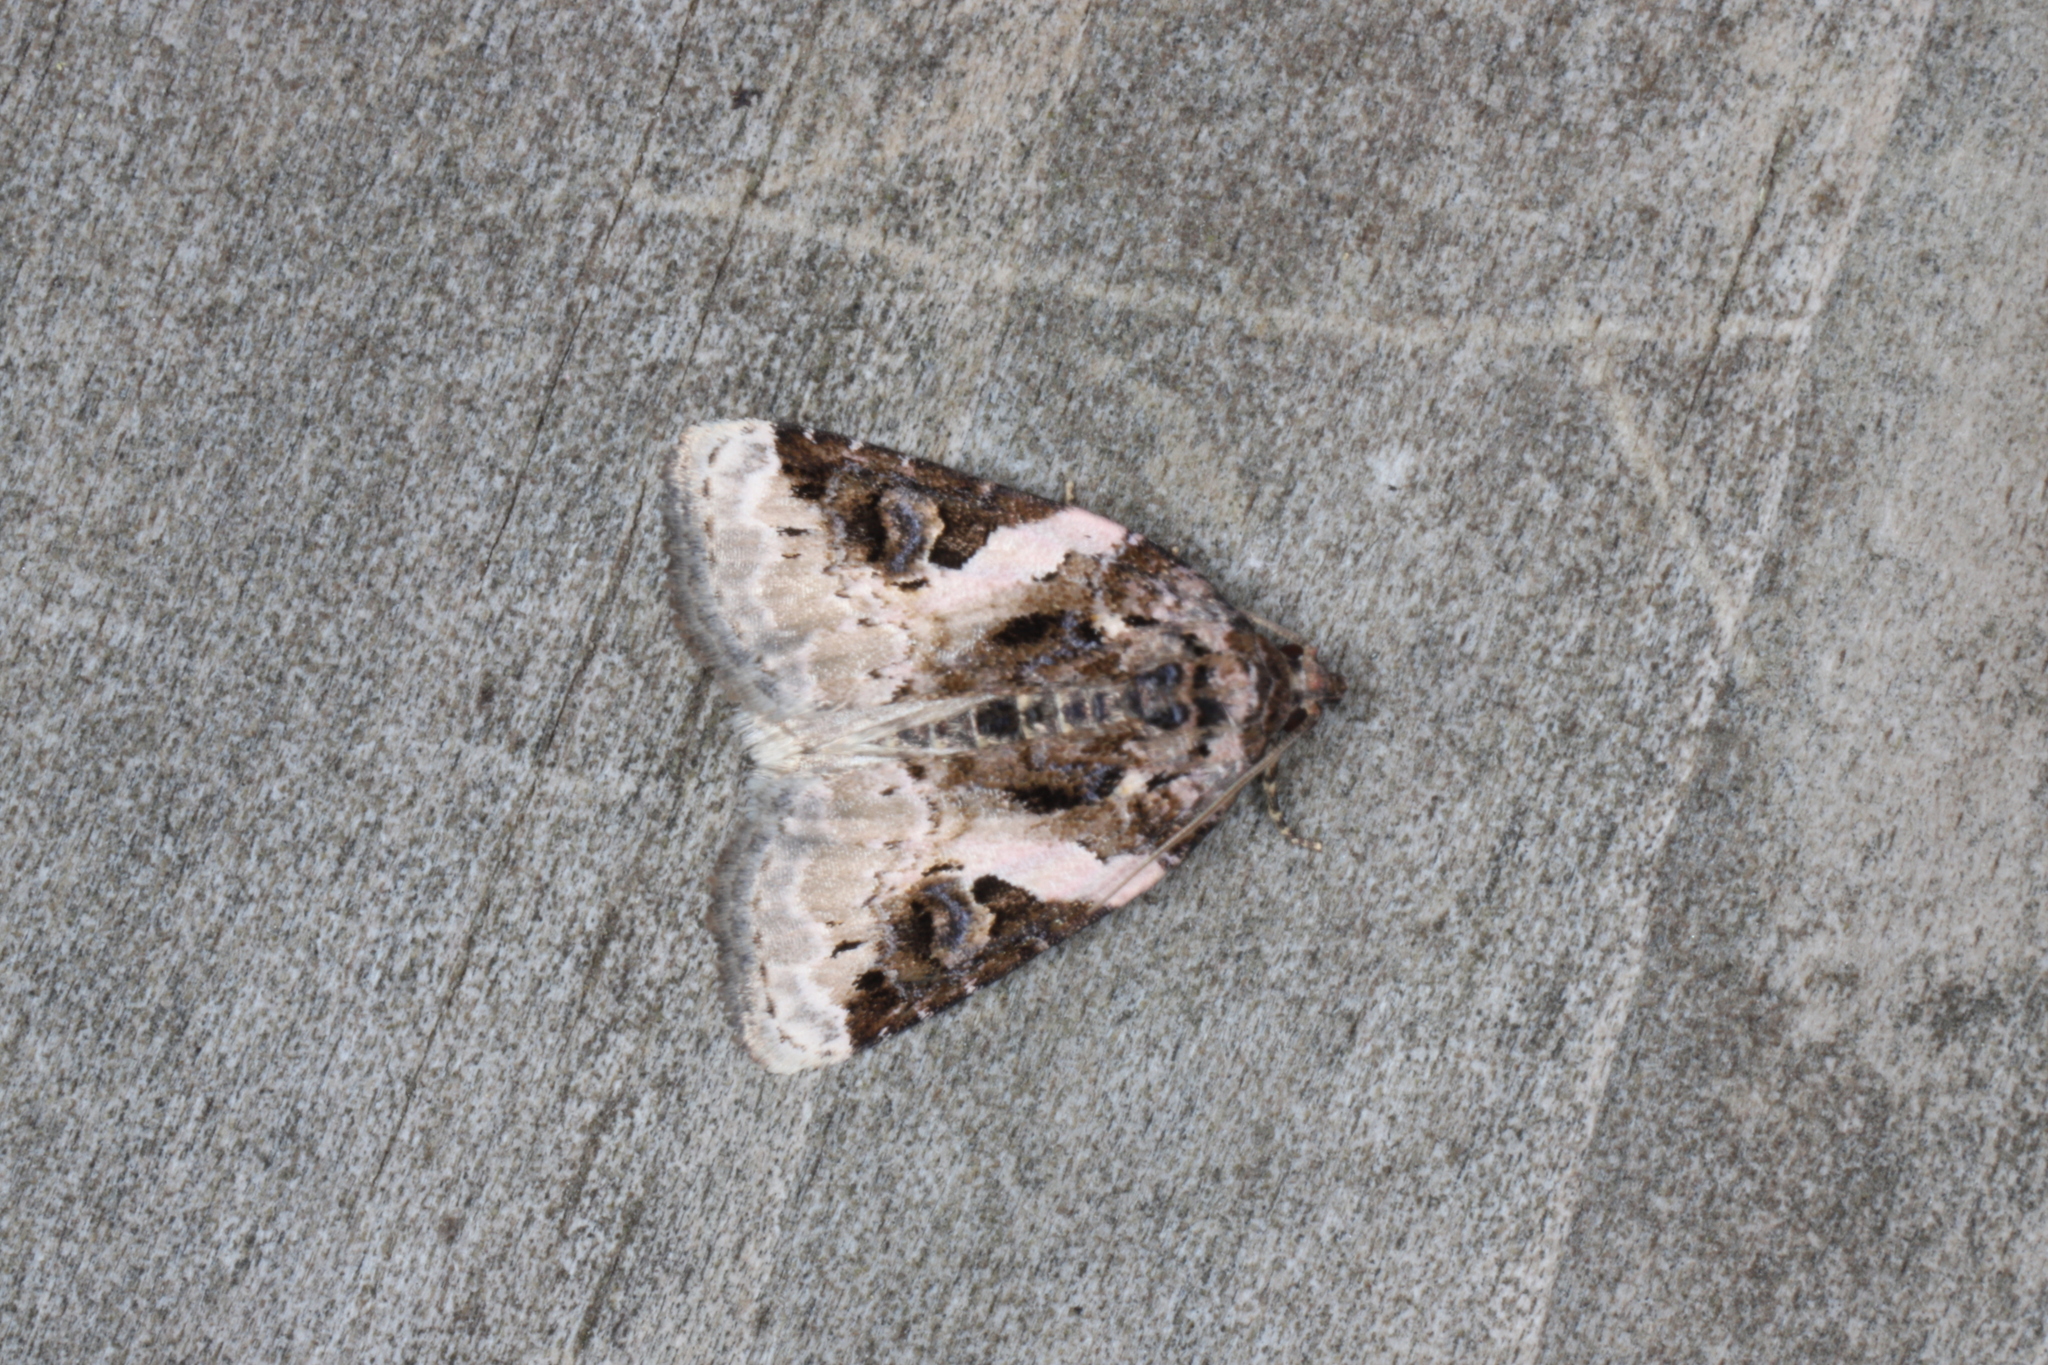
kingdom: Animalia
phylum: Arthropoda
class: Insecta
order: Lepidoptera
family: Noctuidae
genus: Pseudeustrotia
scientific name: Pseudeustrotia carneola
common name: Pink-barred lithacodia moth
